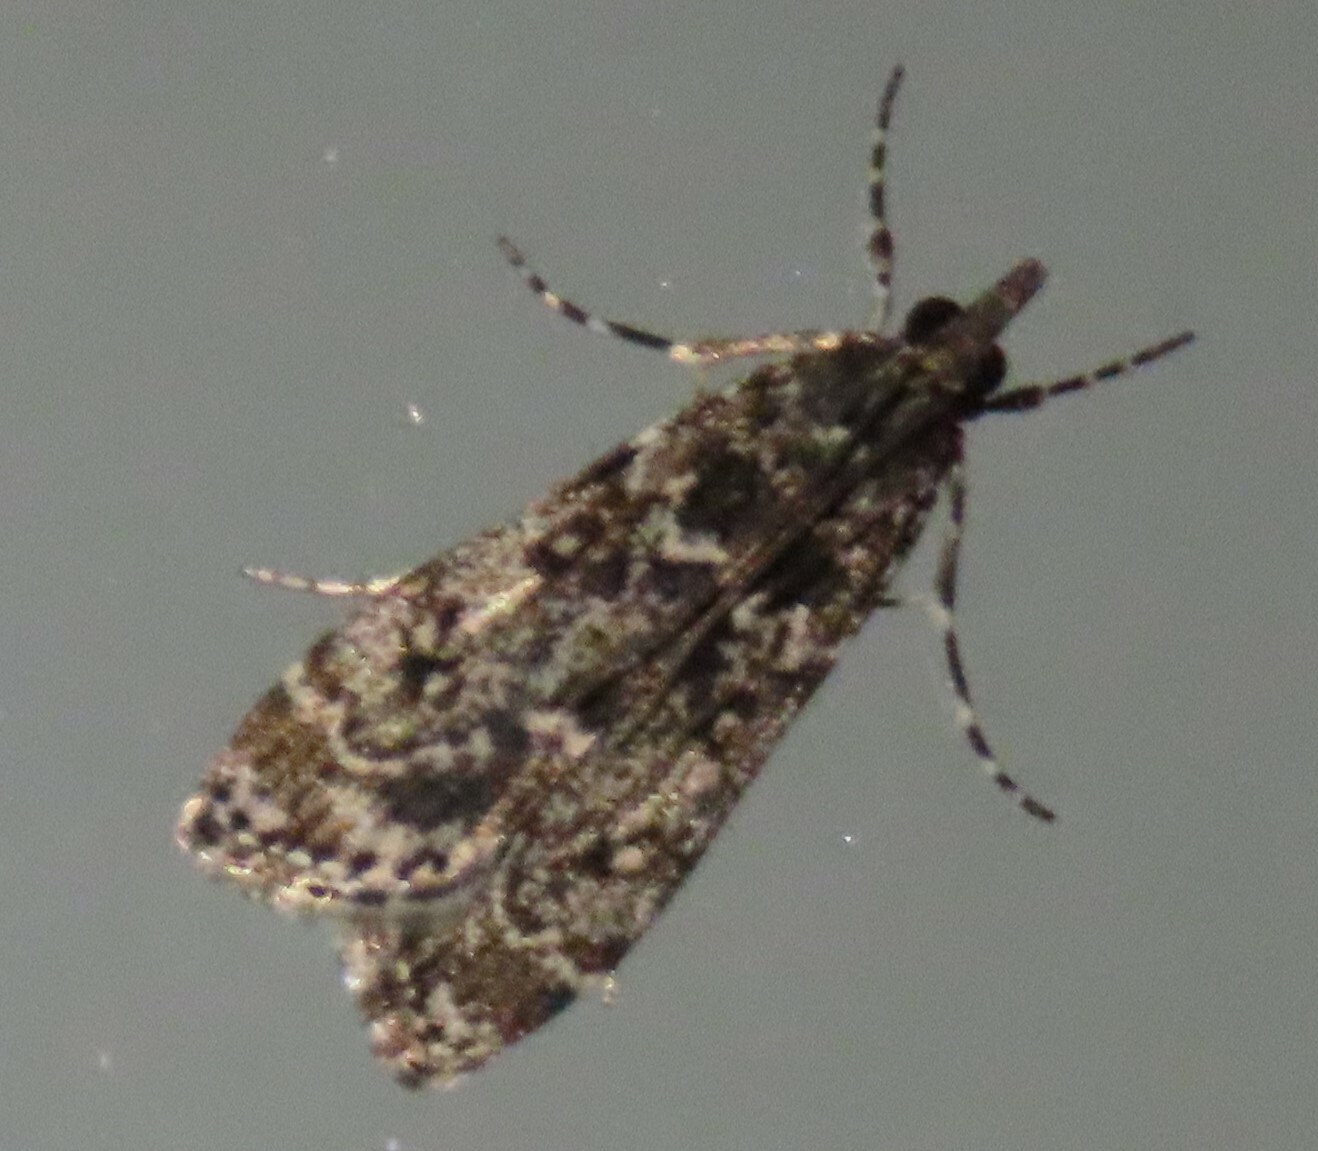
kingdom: Animalia
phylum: Arthropoda
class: Insecta
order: Lepidoptera
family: Crambidae
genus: Eudonia
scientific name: Eudonia philerga
